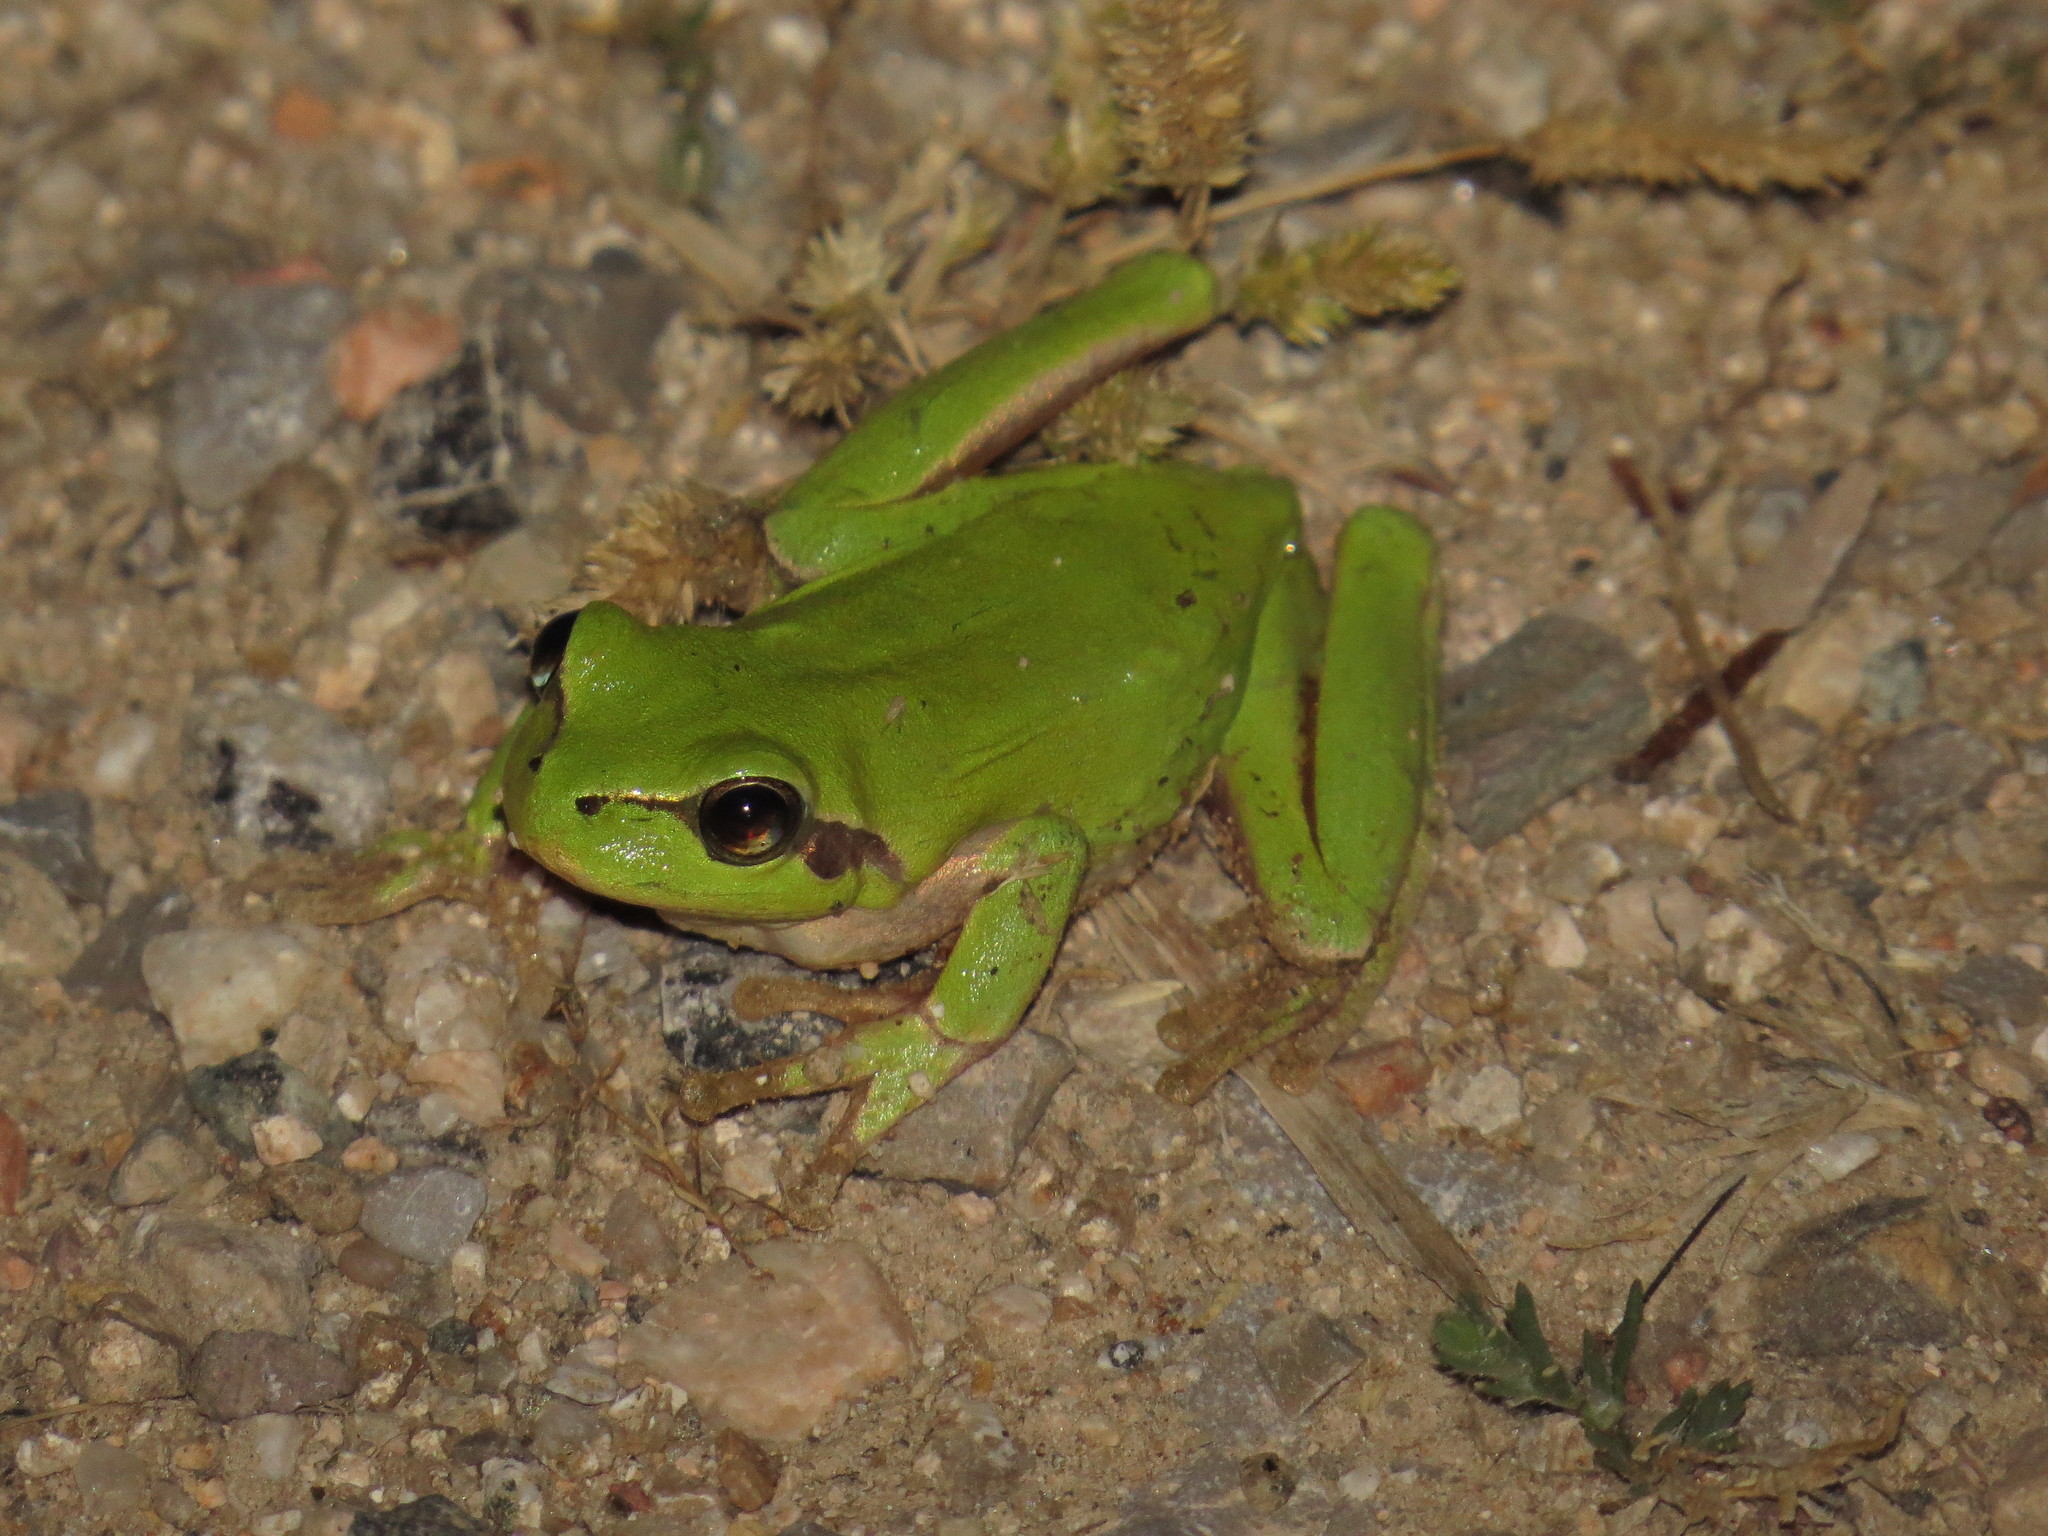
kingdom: Animalia
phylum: Chordata
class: Amphibia
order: Anura
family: Hylidae
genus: Hyla
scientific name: Hyla meridionalis
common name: Stripeless tree frog
